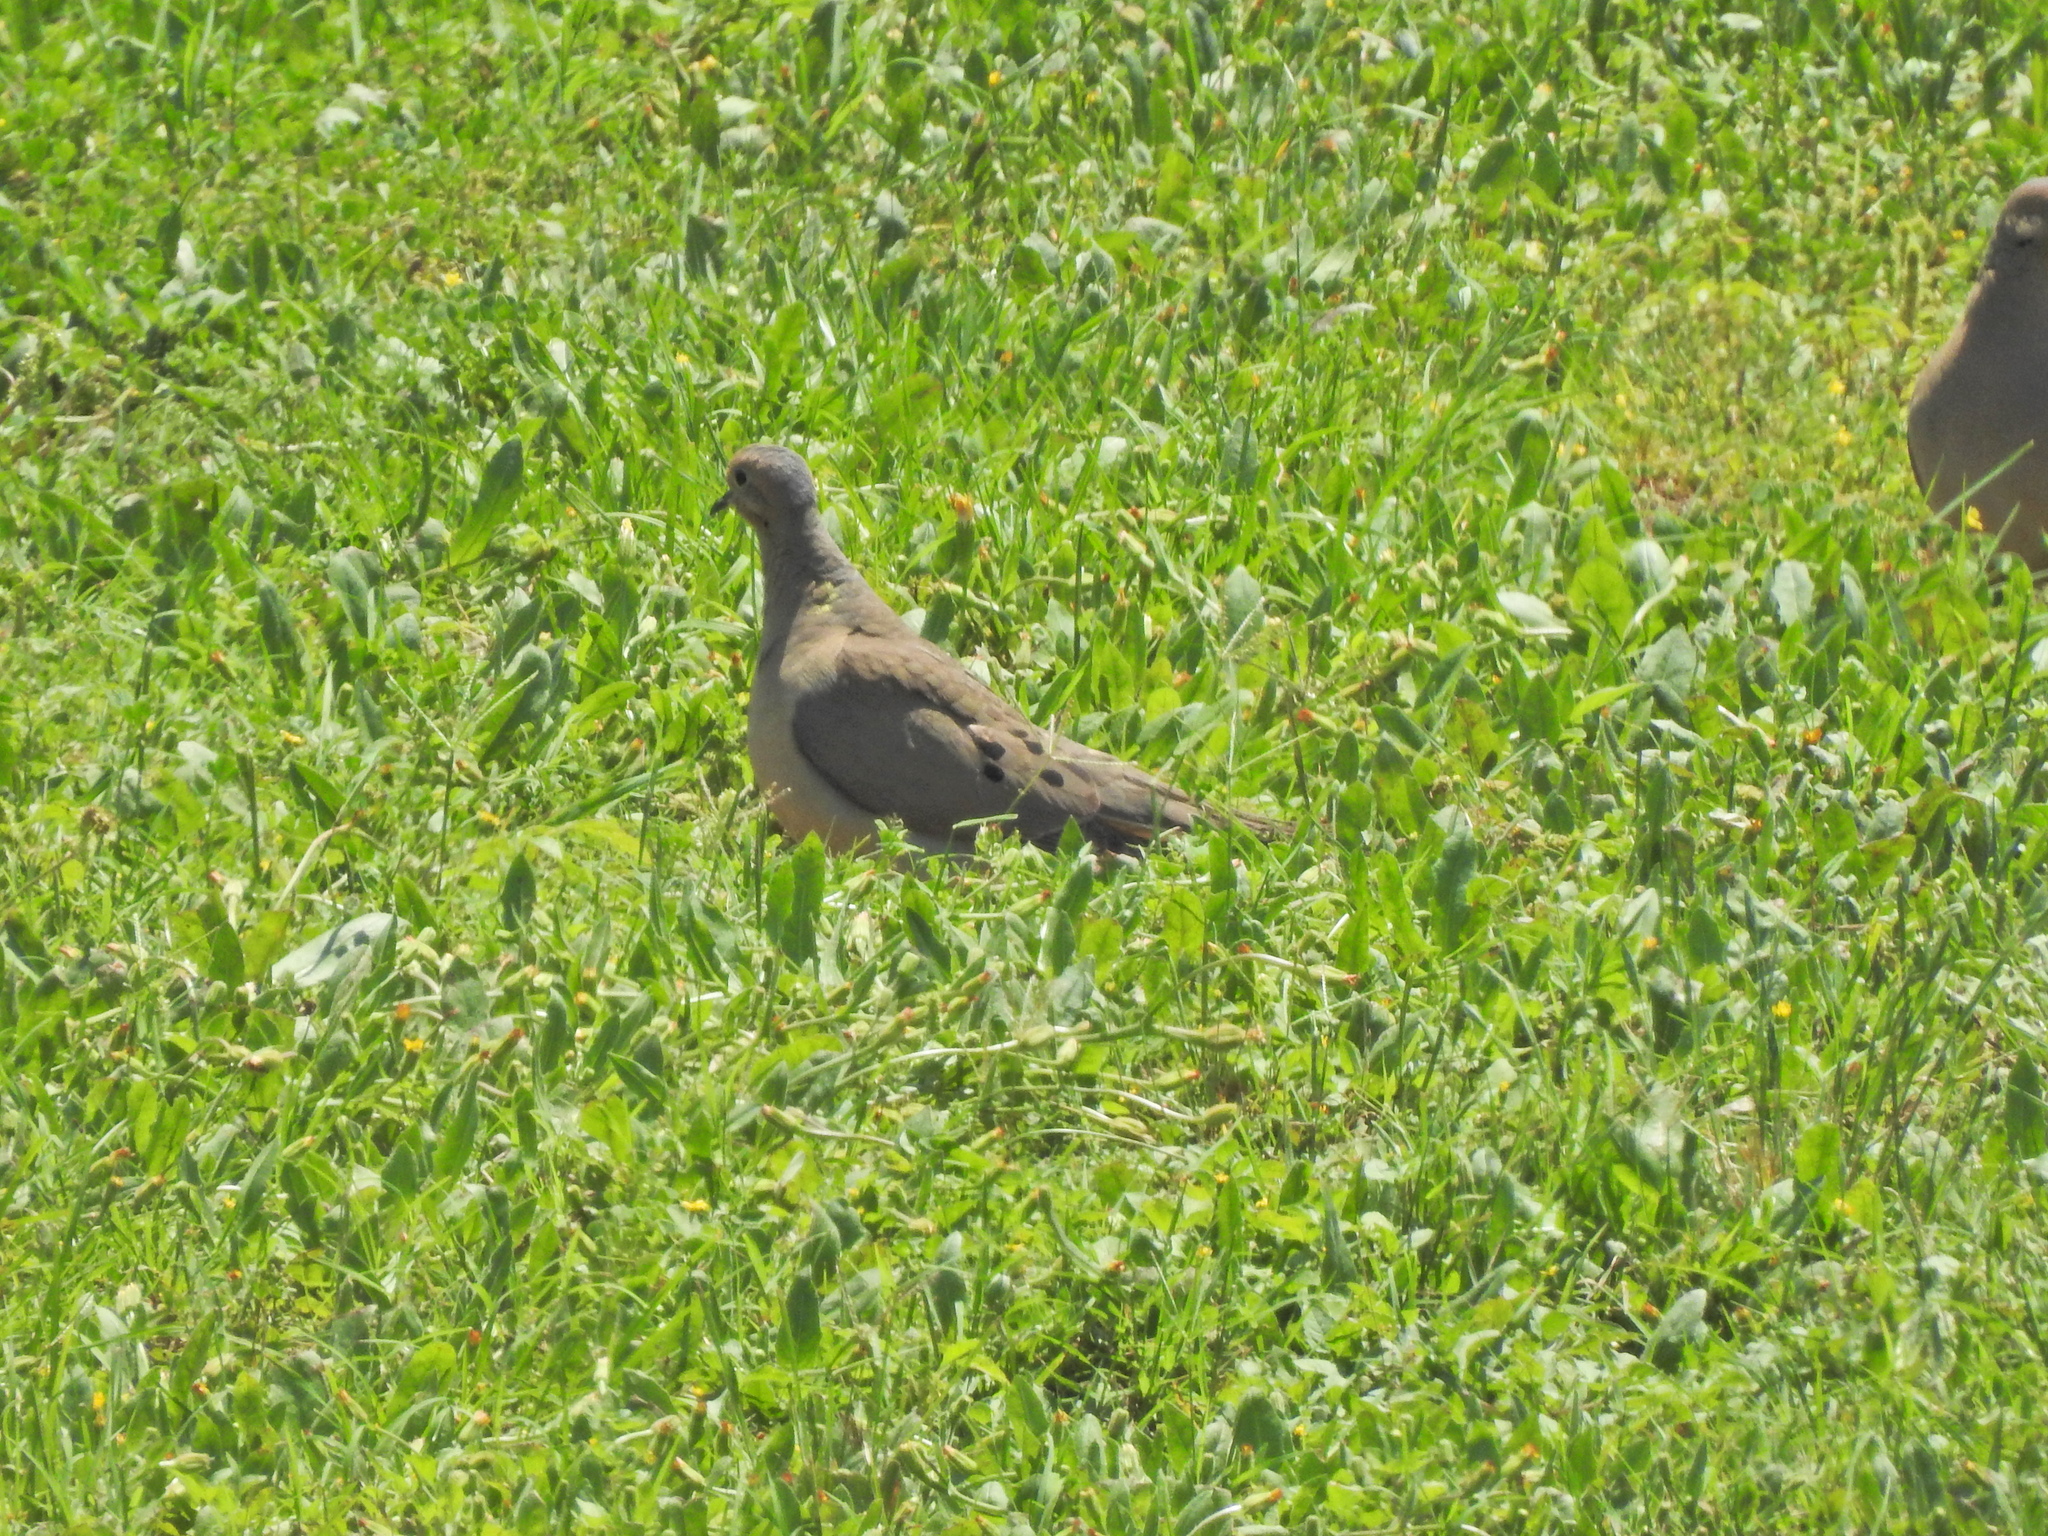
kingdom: Animalia
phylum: Chordata
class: Aves
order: Columbiformes
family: Columbidae
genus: Zenaida
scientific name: Zenaida macroura
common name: Mourning dove
